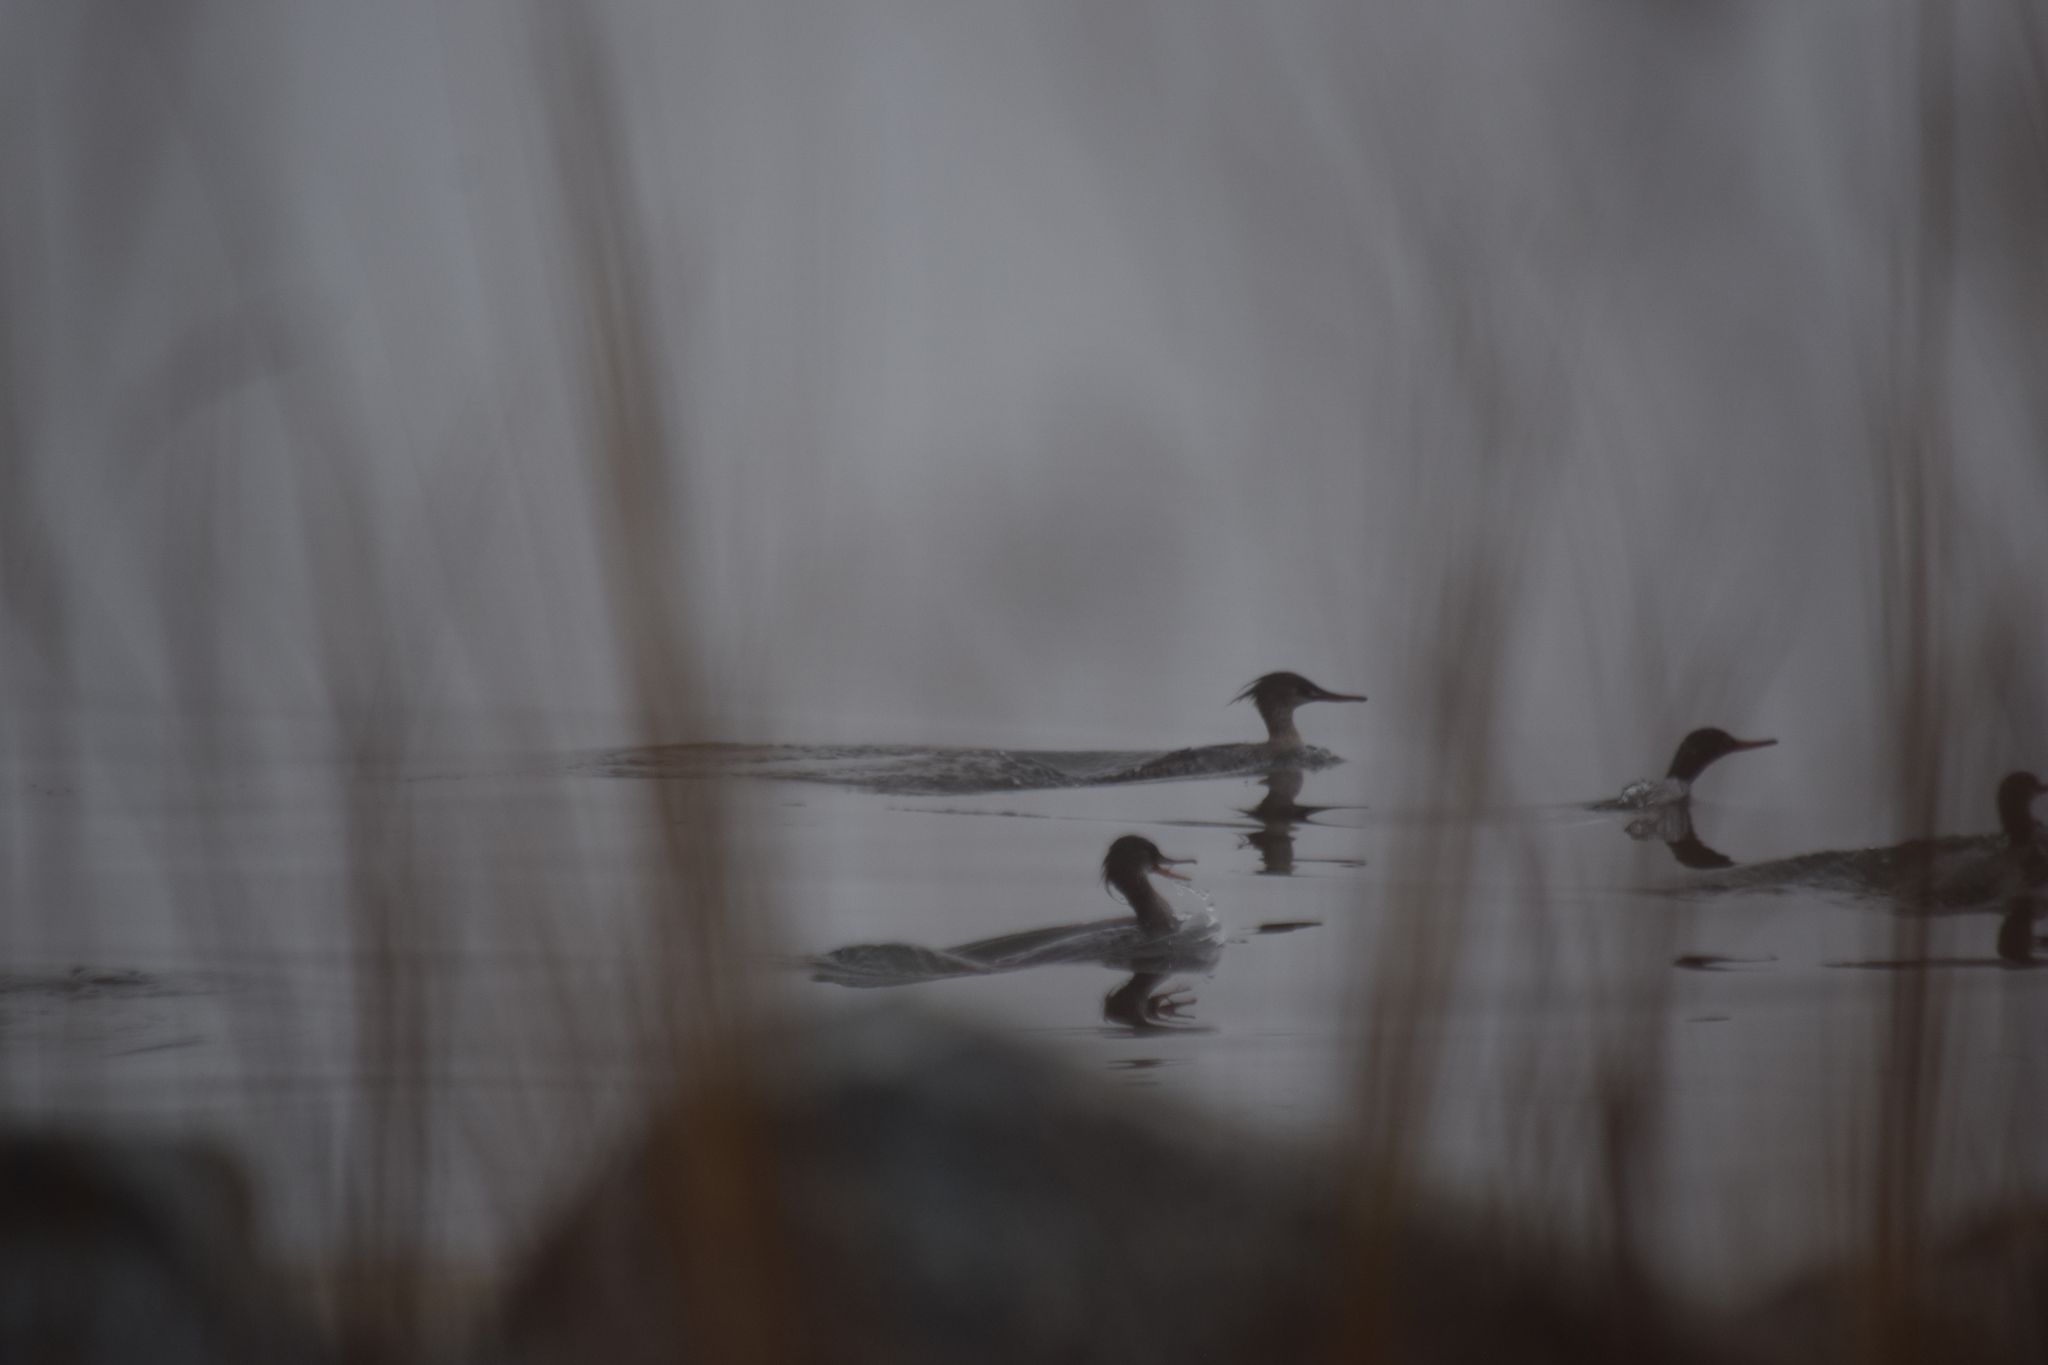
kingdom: Animalia
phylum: Chordata
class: Aves
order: Anseriformes
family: Anatidae
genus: Mergus
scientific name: Mergus serrator
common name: Red-breasted merganser
